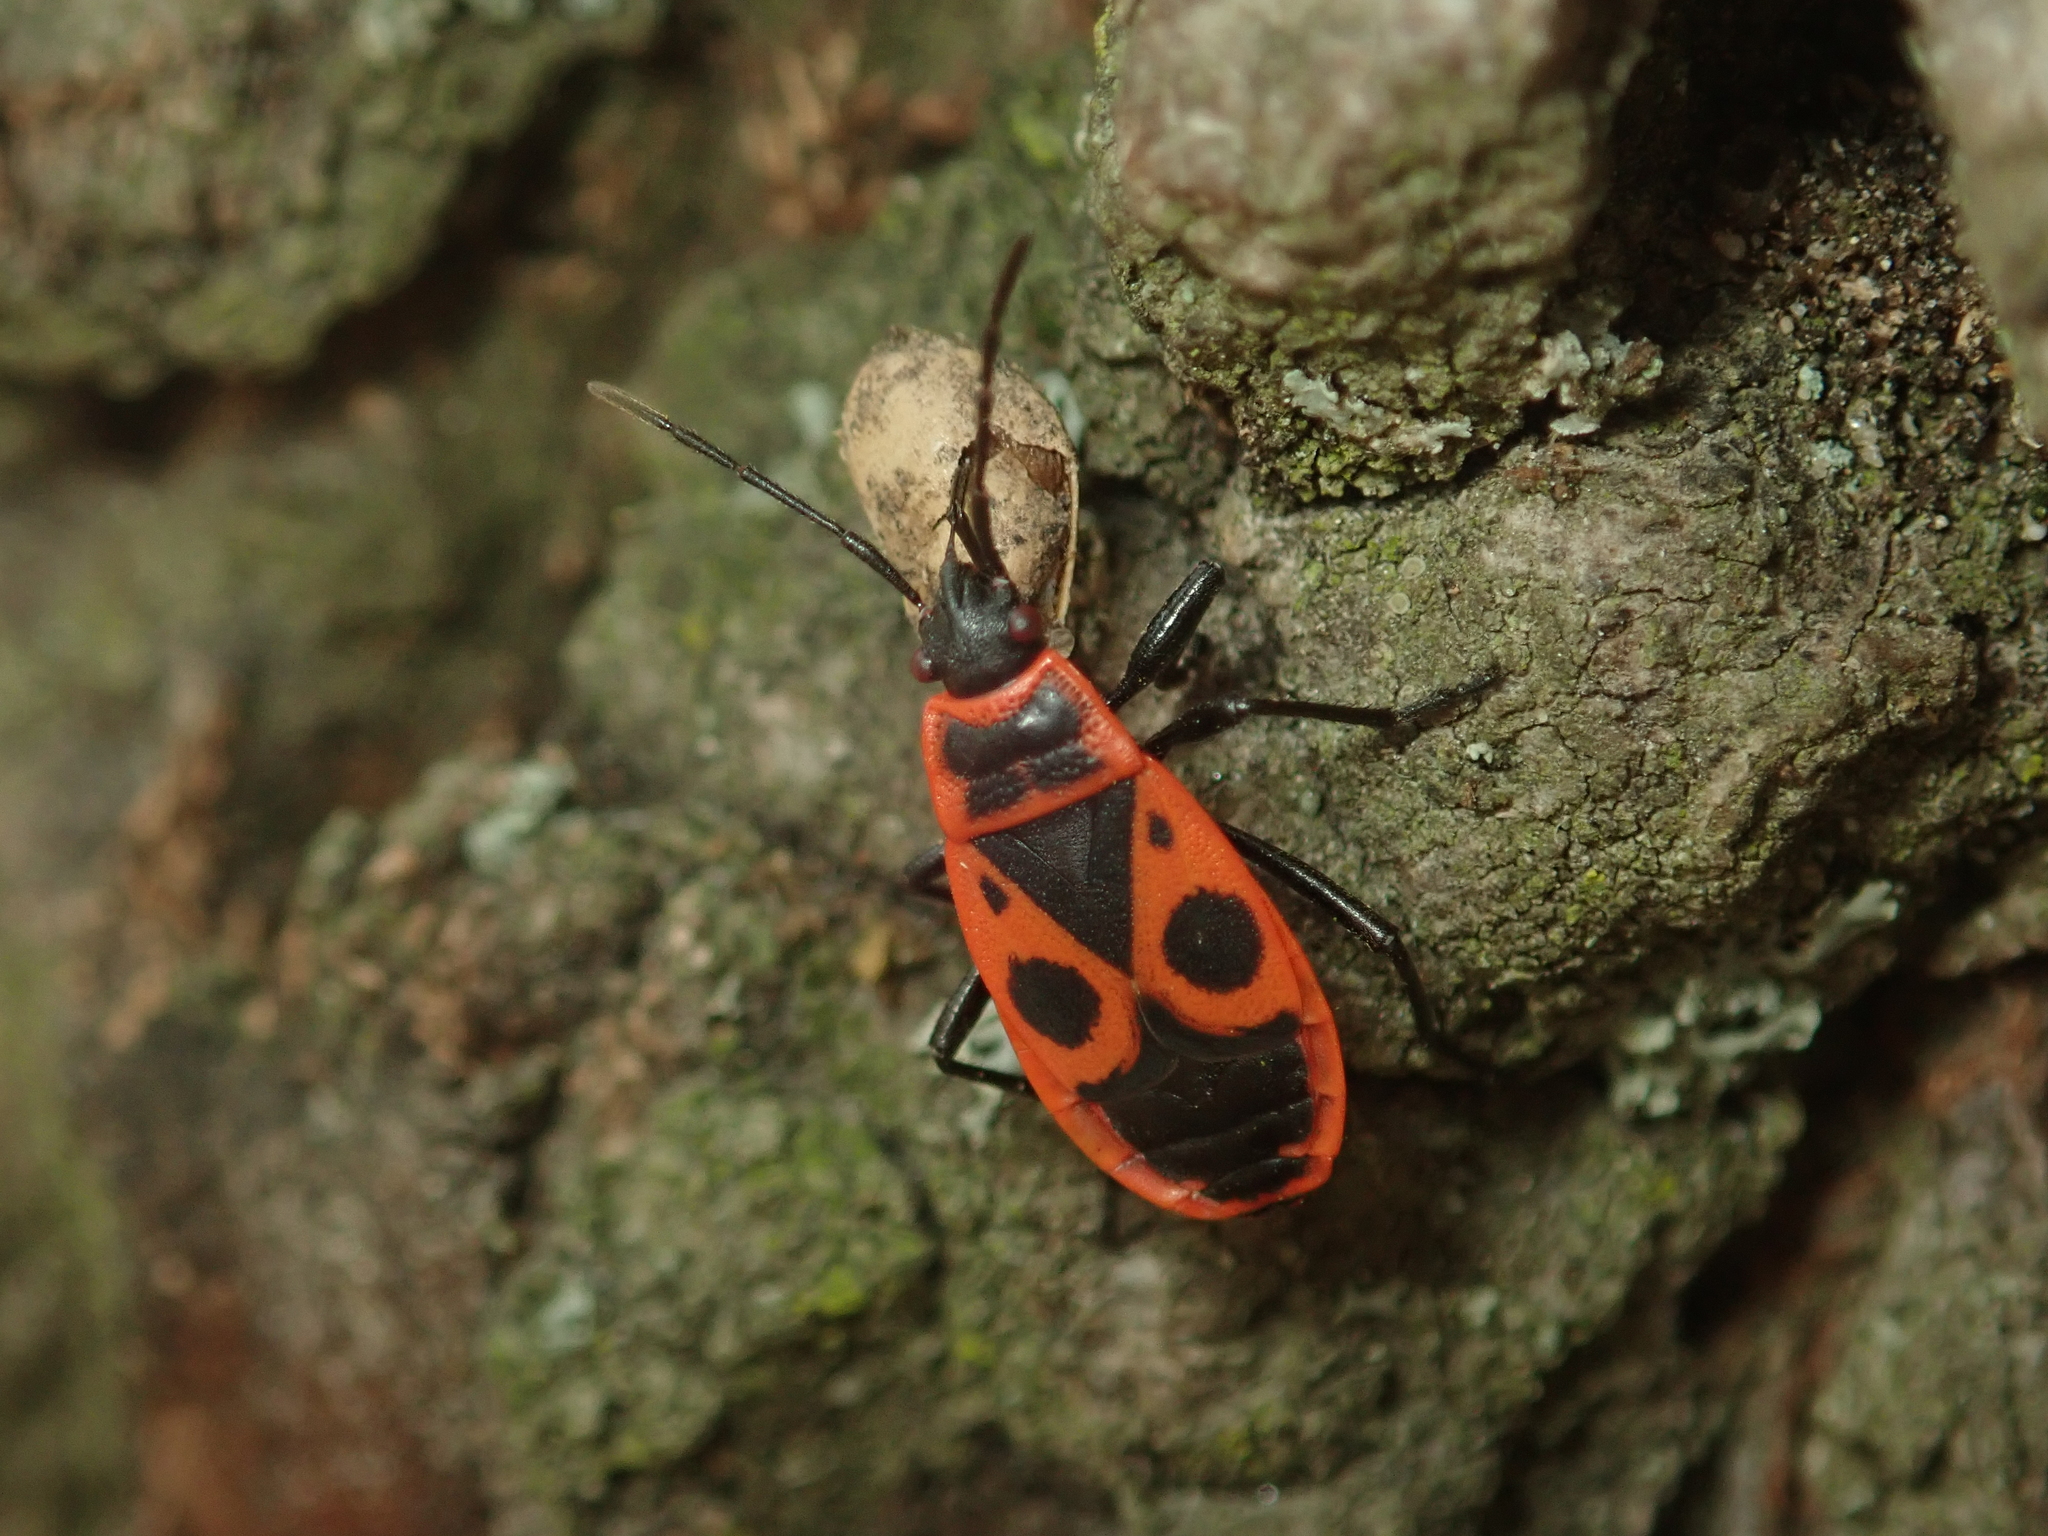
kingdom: Animalia
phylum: Arthropoda
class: Insecta
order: Hemiptera
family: Pyrrhocoridae
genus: Pyrrhocoris
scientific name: Pyrrhocoris apterus
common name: Firebug
